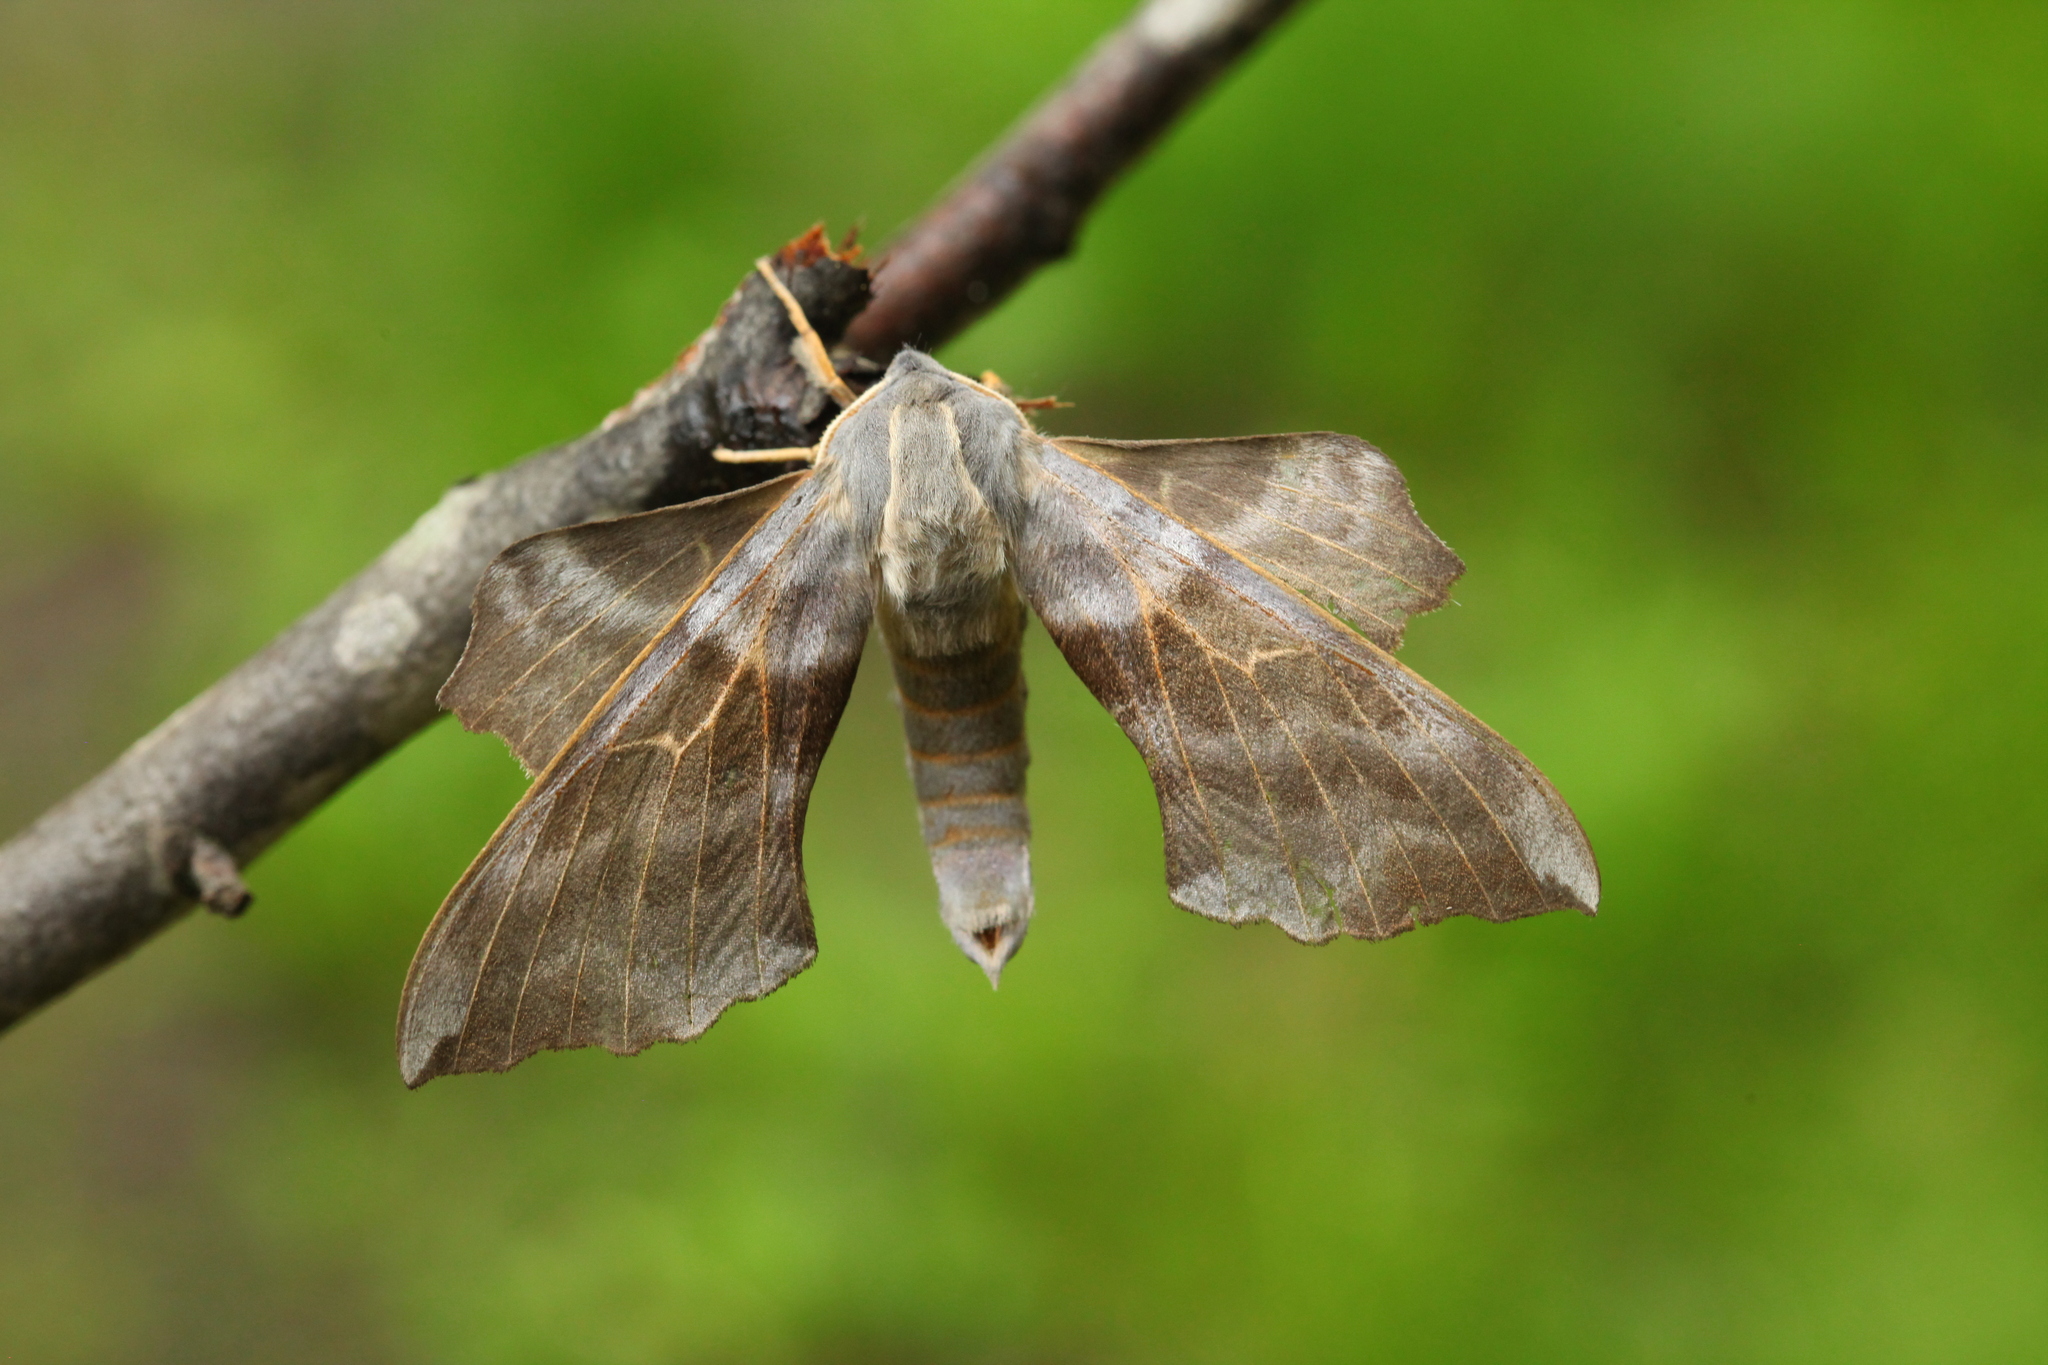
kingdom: Animalia
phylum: Arthropoda
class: Insecta
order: Lepidoptera
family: Sphingidae
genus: Laothoe
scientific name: Laothoe amurensis
